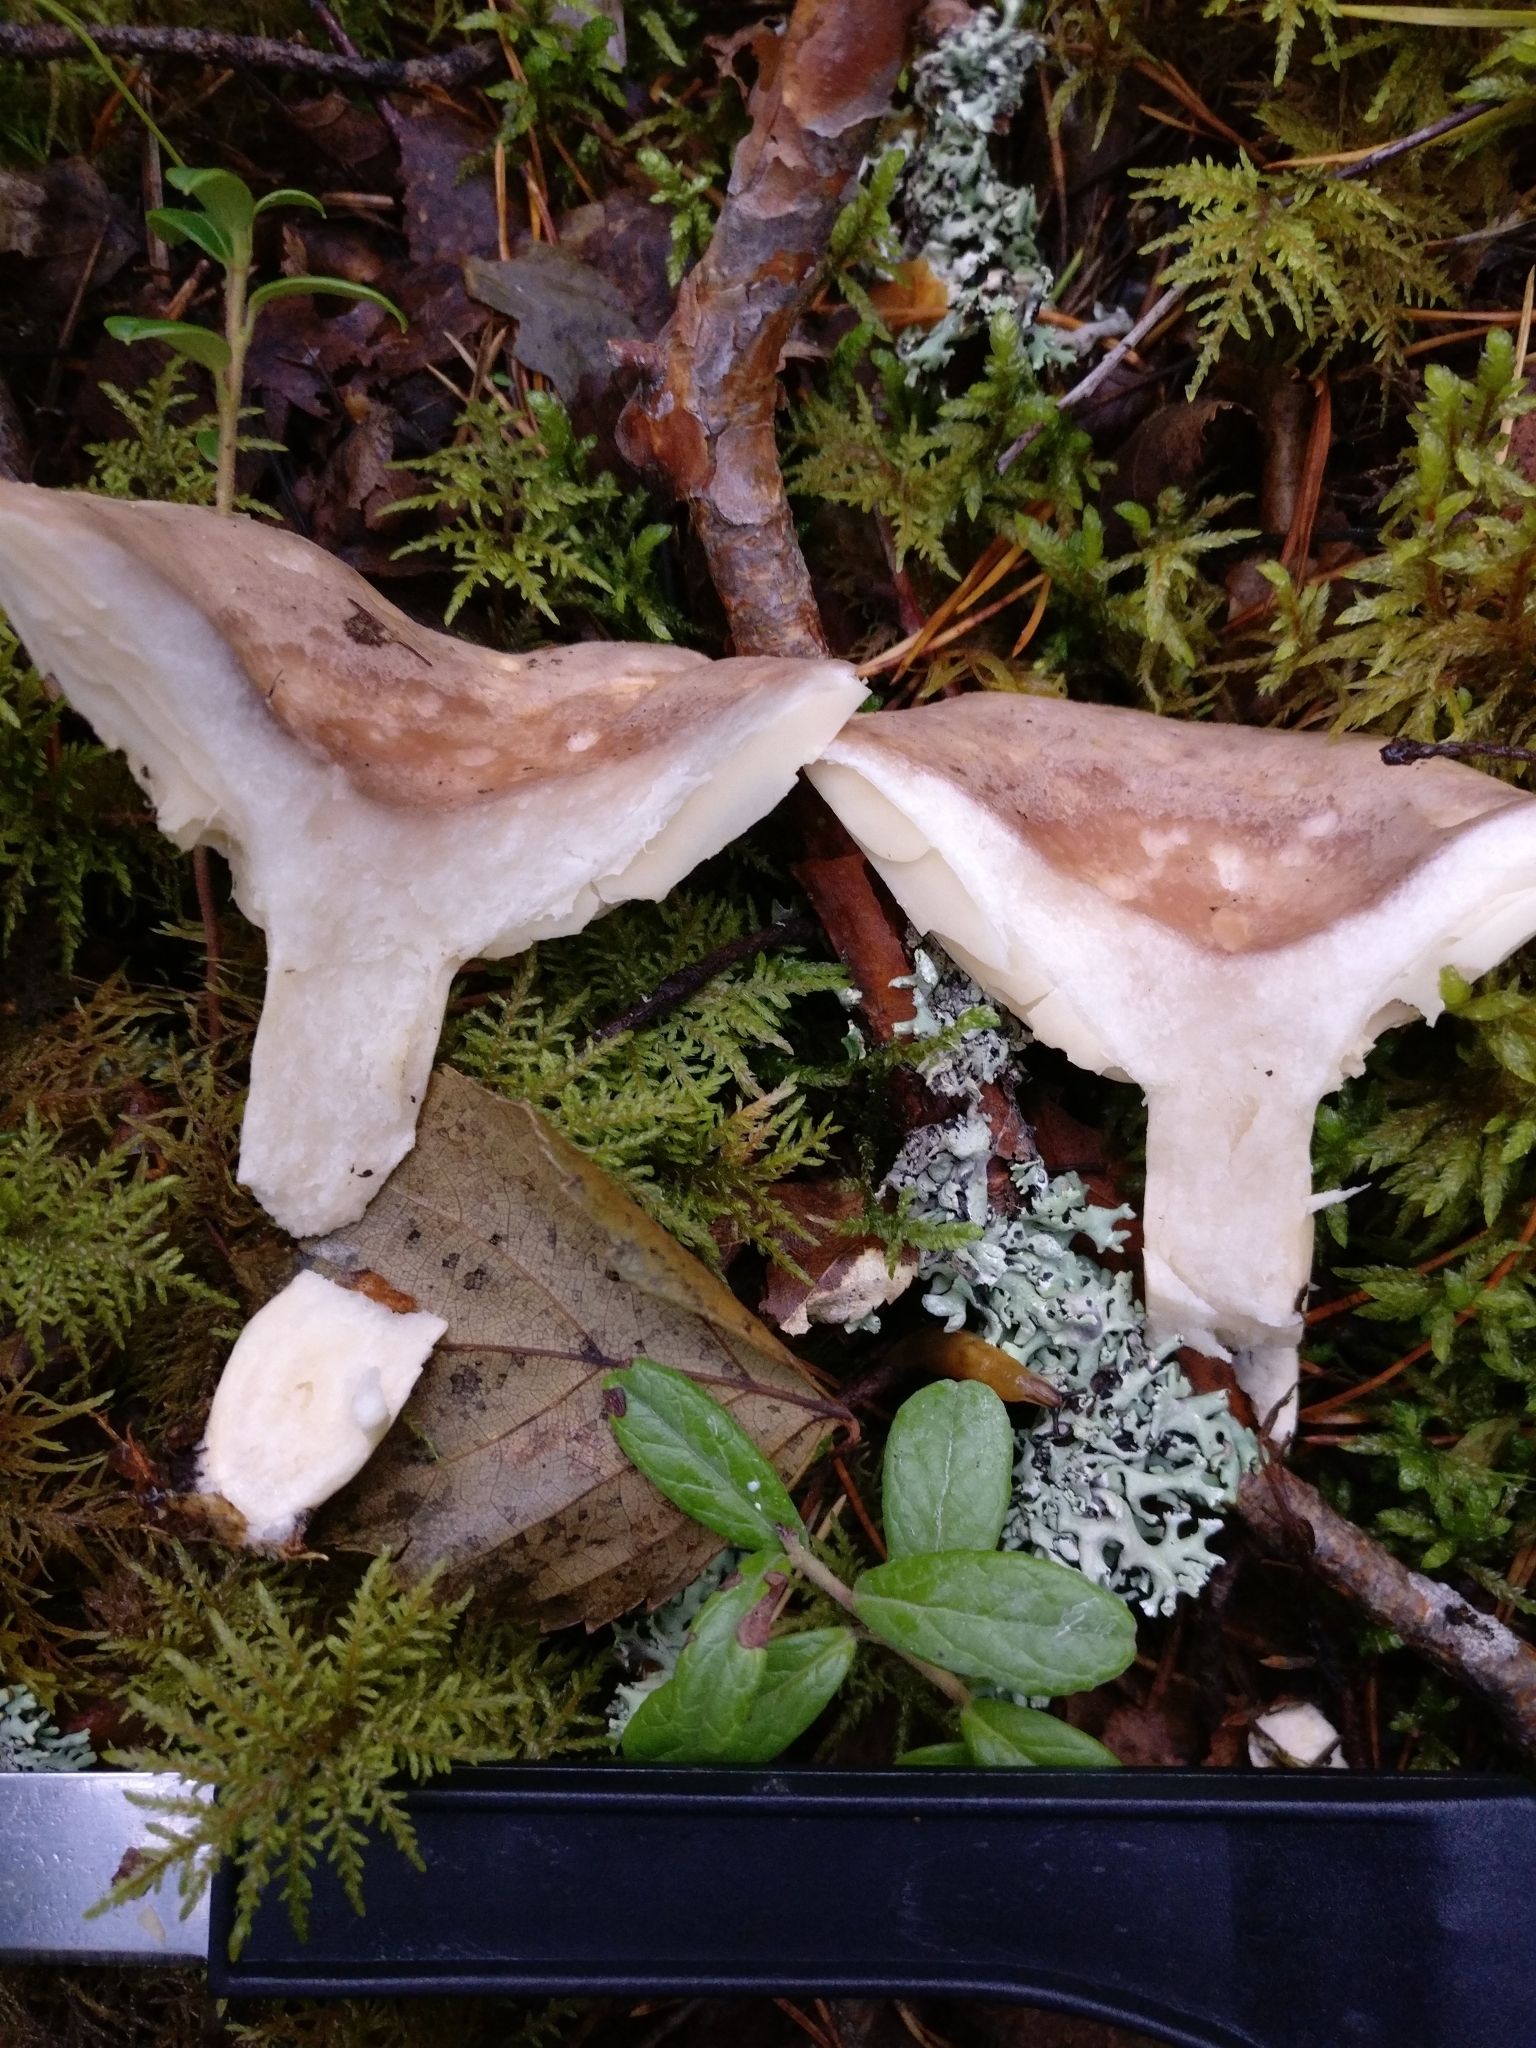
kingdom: Fungi
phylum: Basidiomycota
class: Agaricomycetes
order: Russulales
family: Russulaceae
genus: Lactarius
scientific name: Lactarius trivialis
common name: Tacked milkcap
